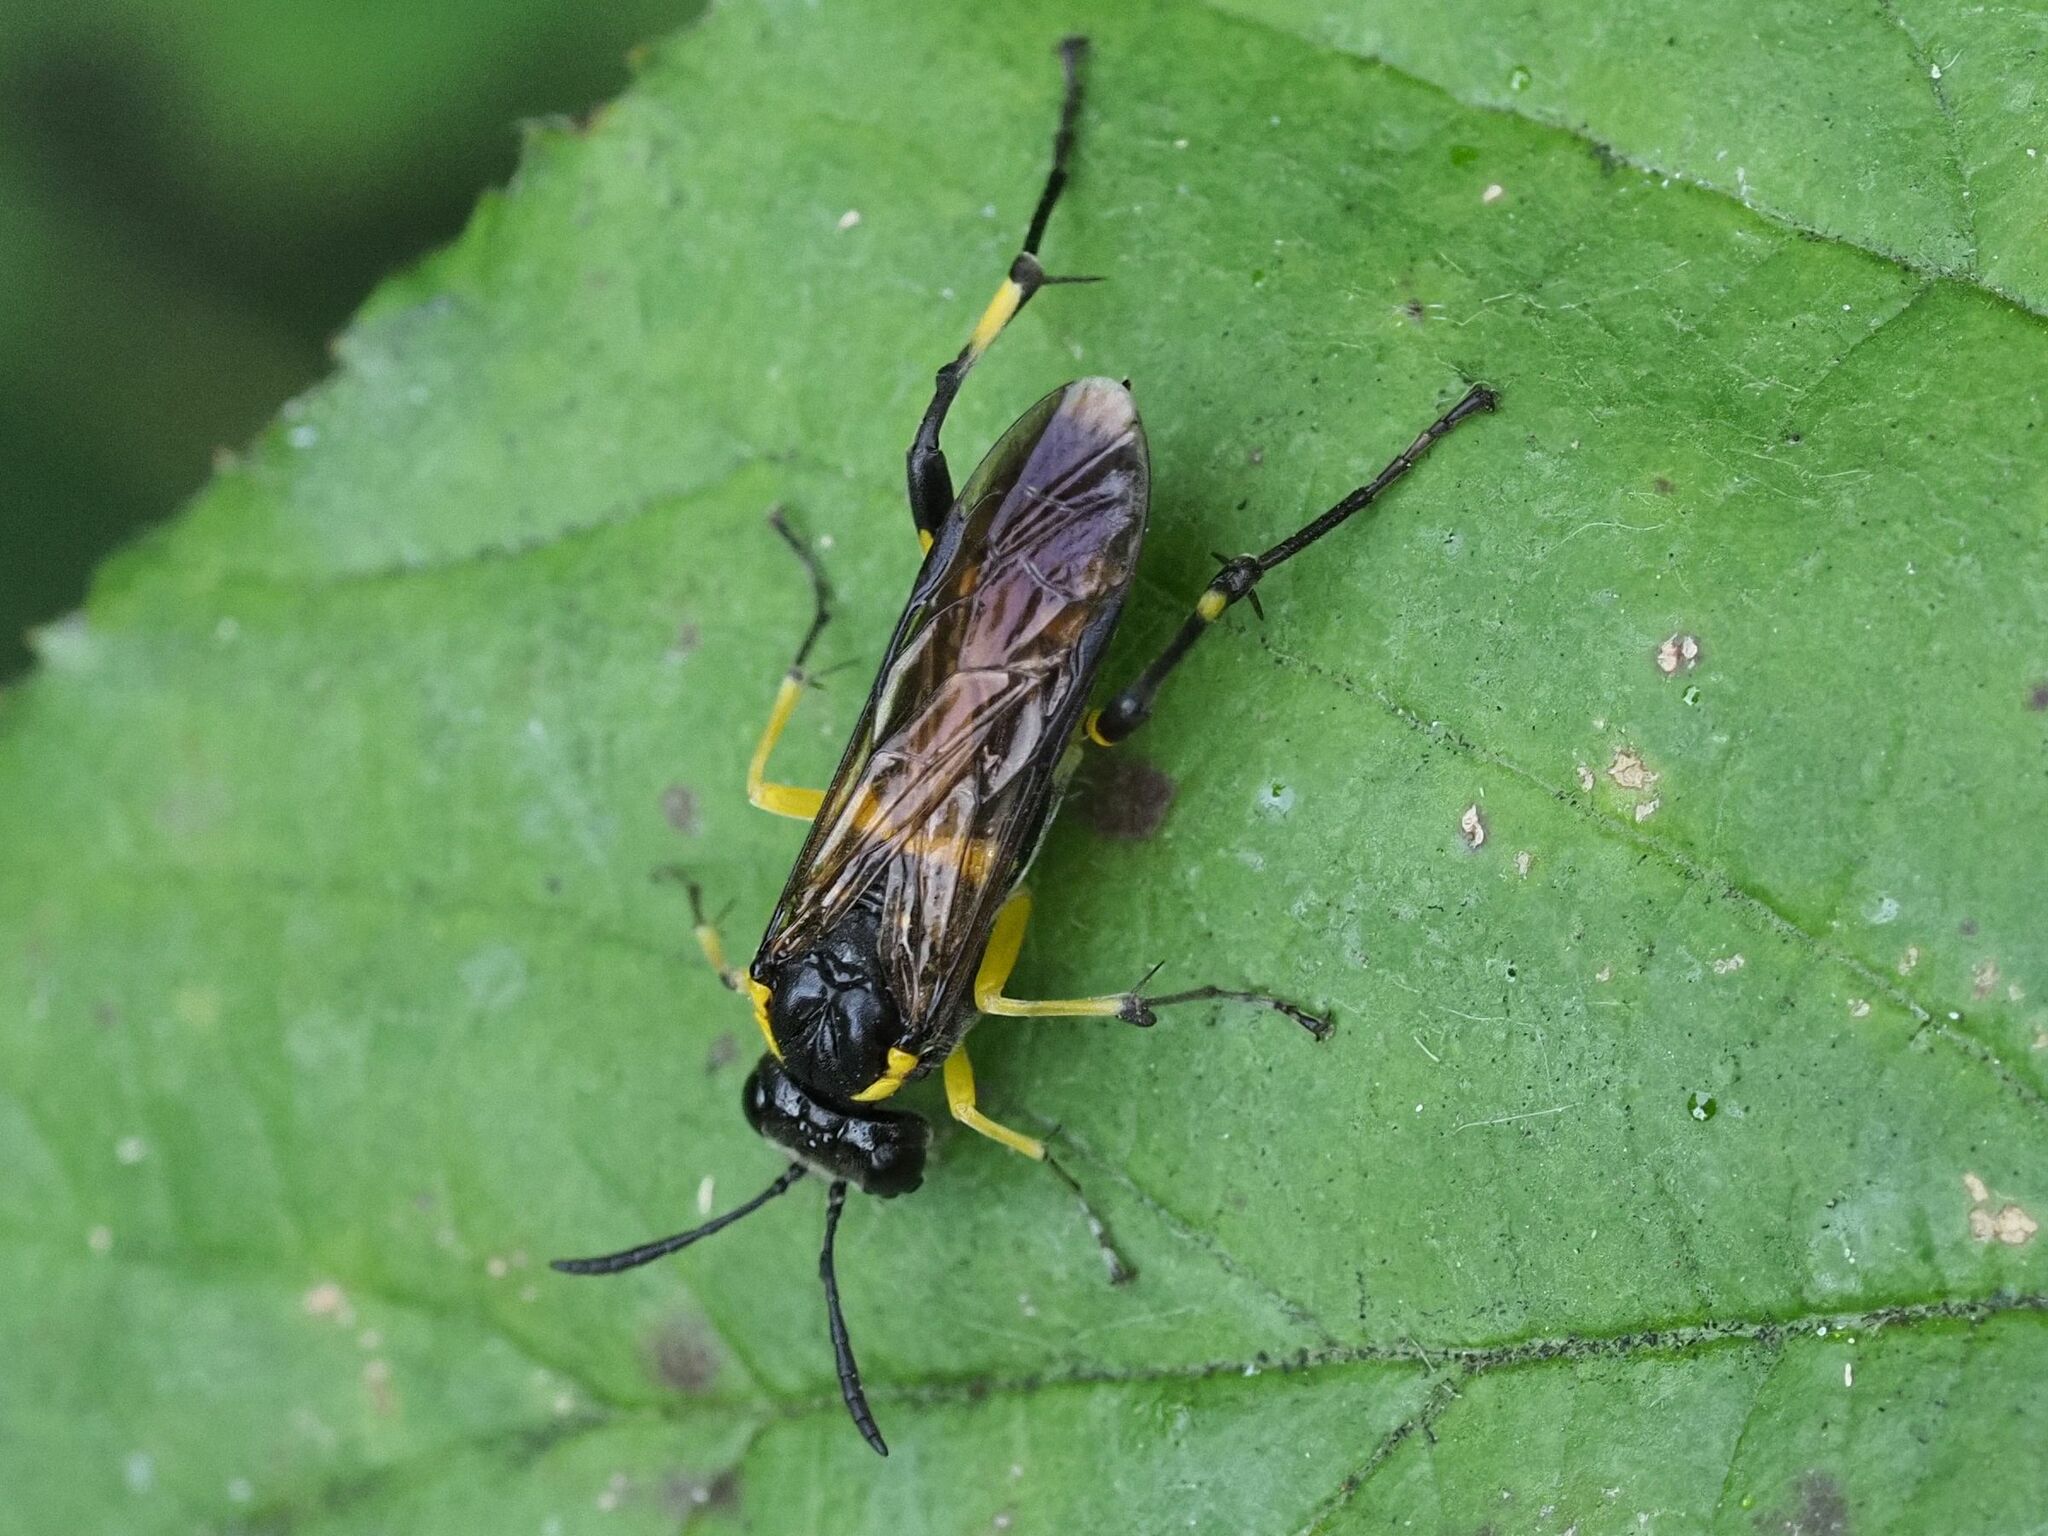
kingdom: Animalia
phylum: Arthropoda
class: Insecta
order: Hymenoptera
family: Tenthredinidae
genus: Macrophya
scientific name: Macrophya montana
